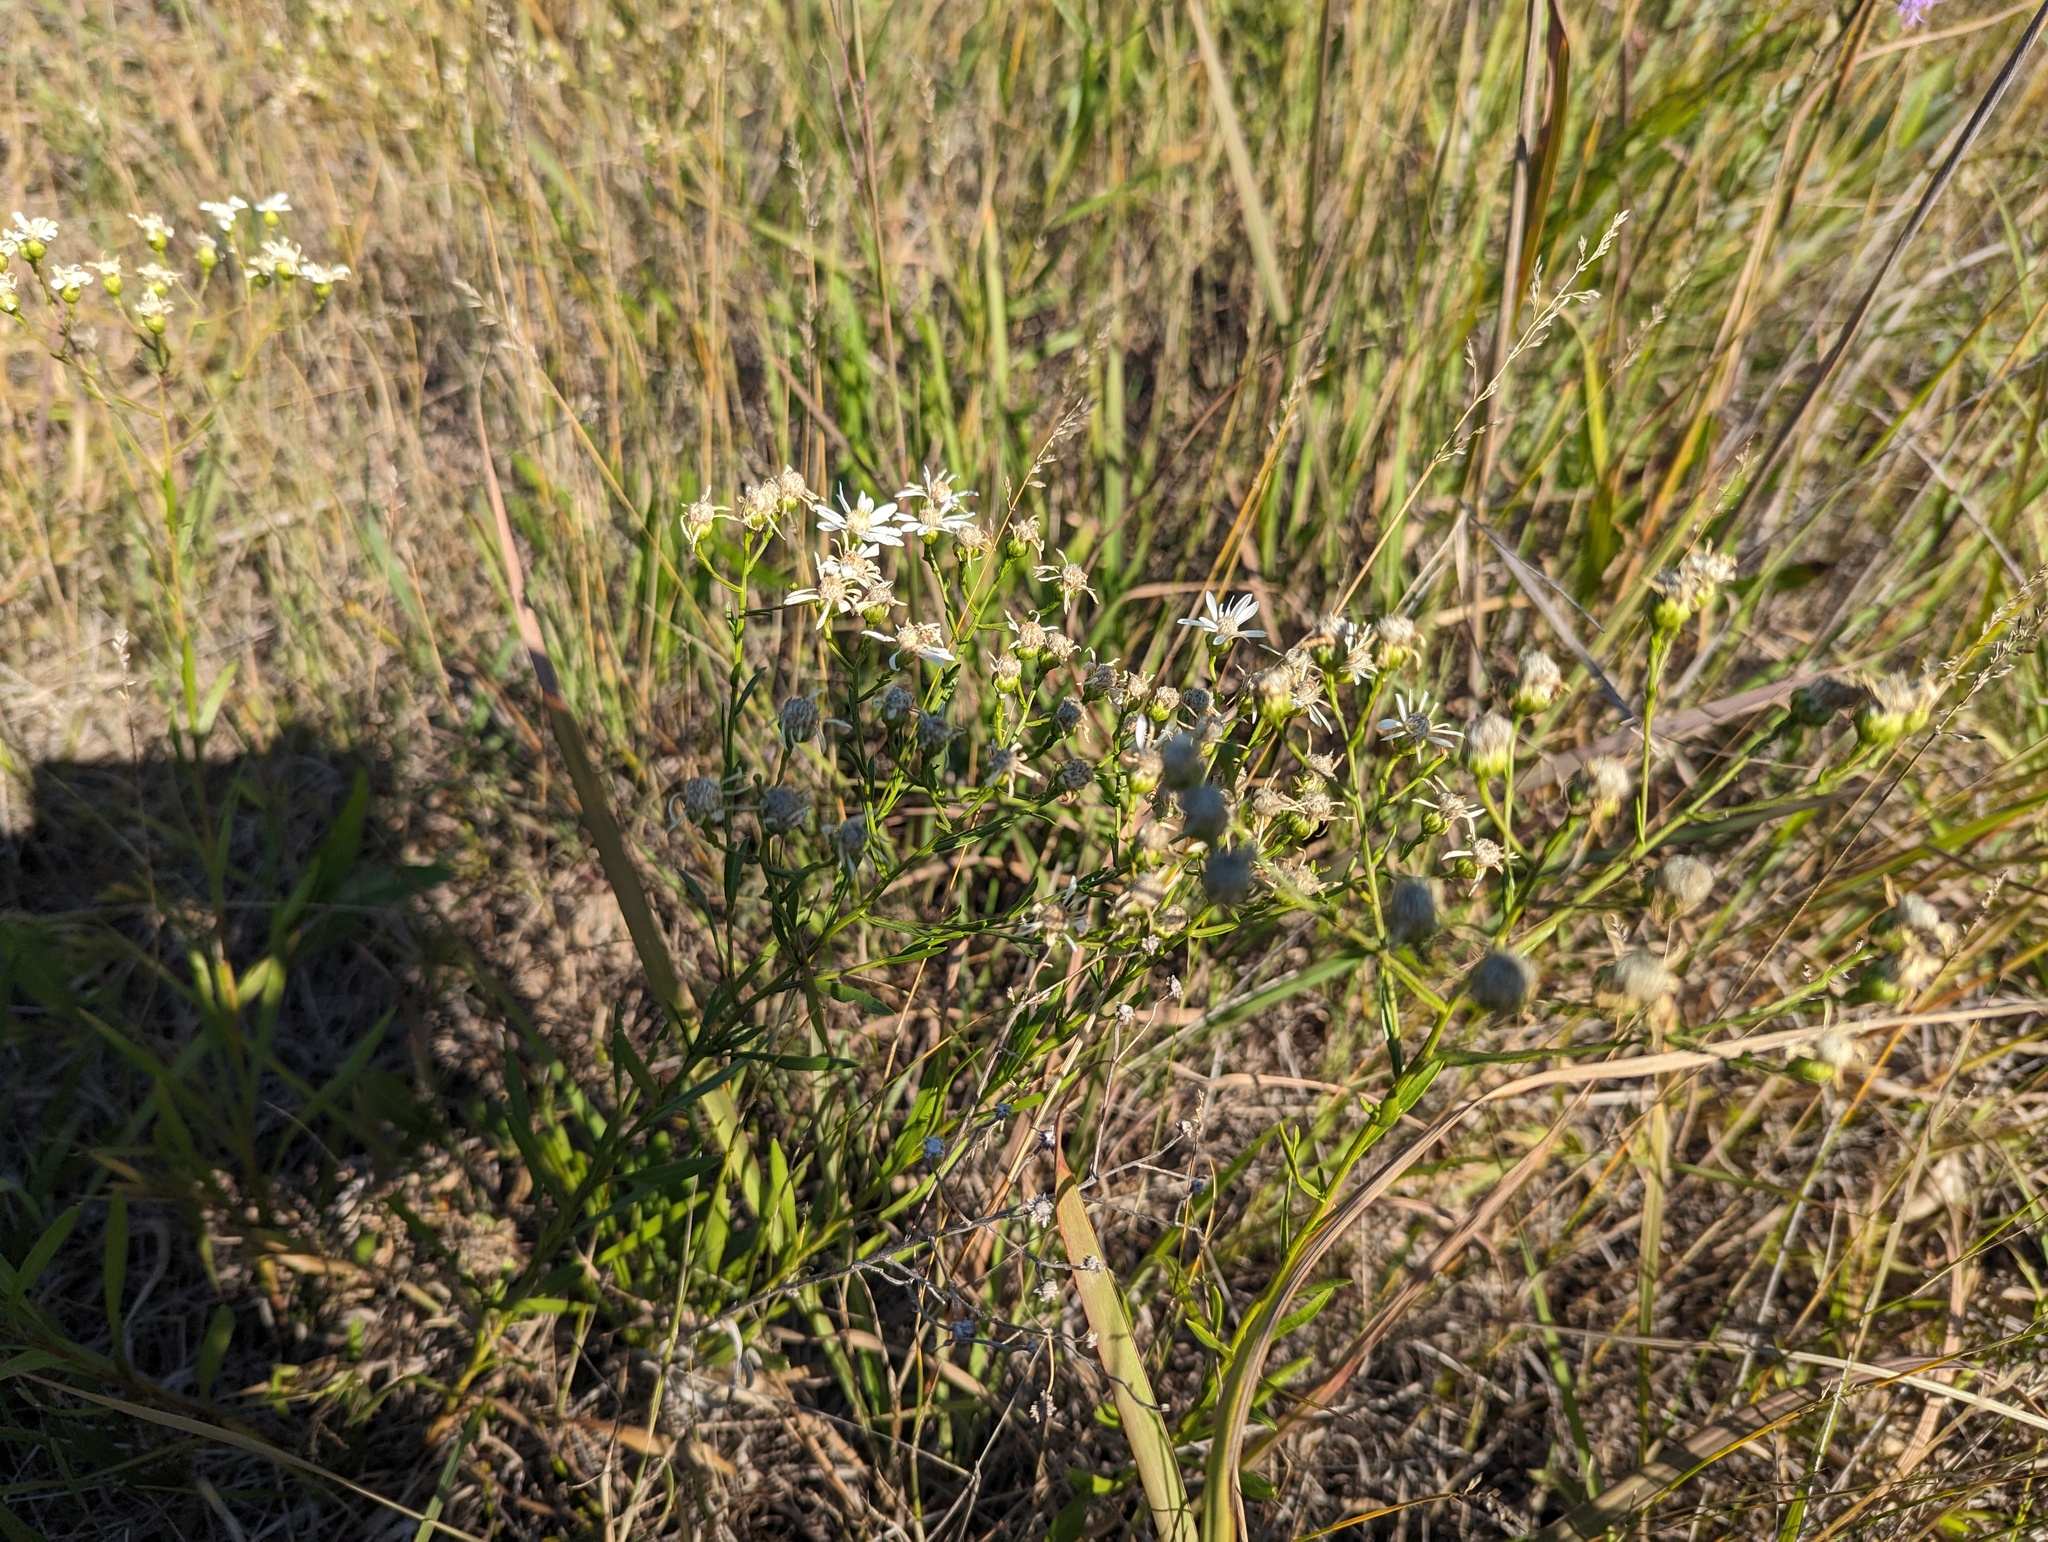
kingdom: Plantae
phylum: Tracheophyta
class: Magnoliopsida
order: Asterales
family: Asteraceae
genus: Solidago
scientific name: Solidago ptarmicoides
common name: White flat-top goldenrod
